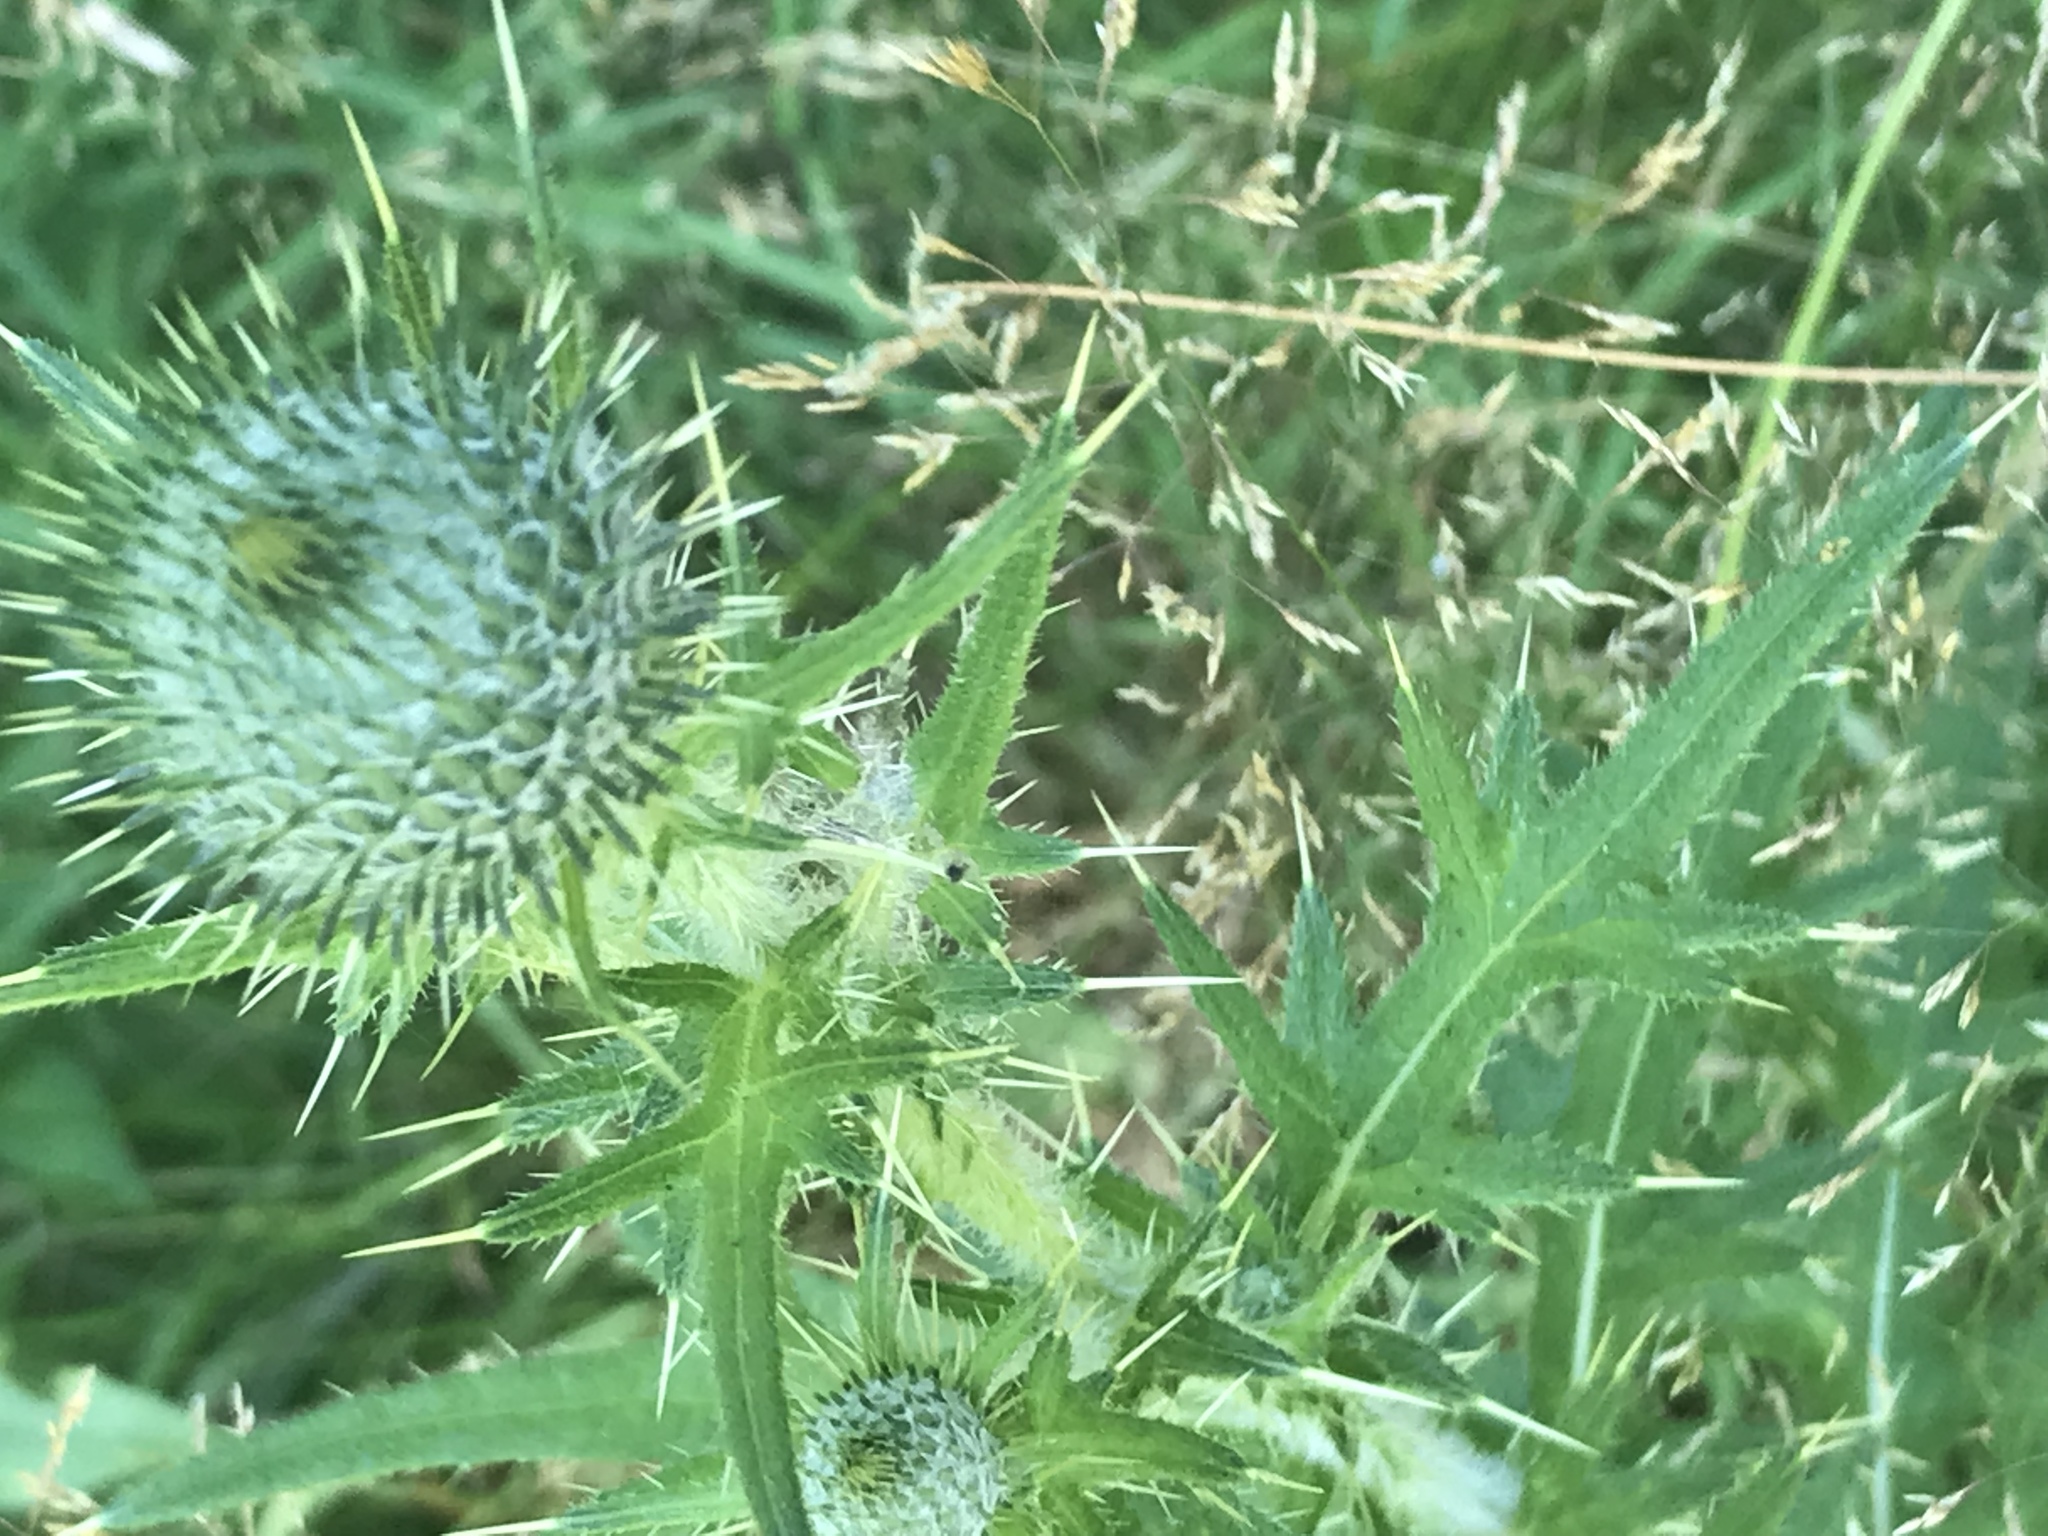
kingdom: Plantae
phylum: Tracheophyta
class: Magnoliopsida
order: Asterales
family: Asteraceae
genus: Cirsium
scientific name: Cirsium vulgare
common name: Bull thistle
